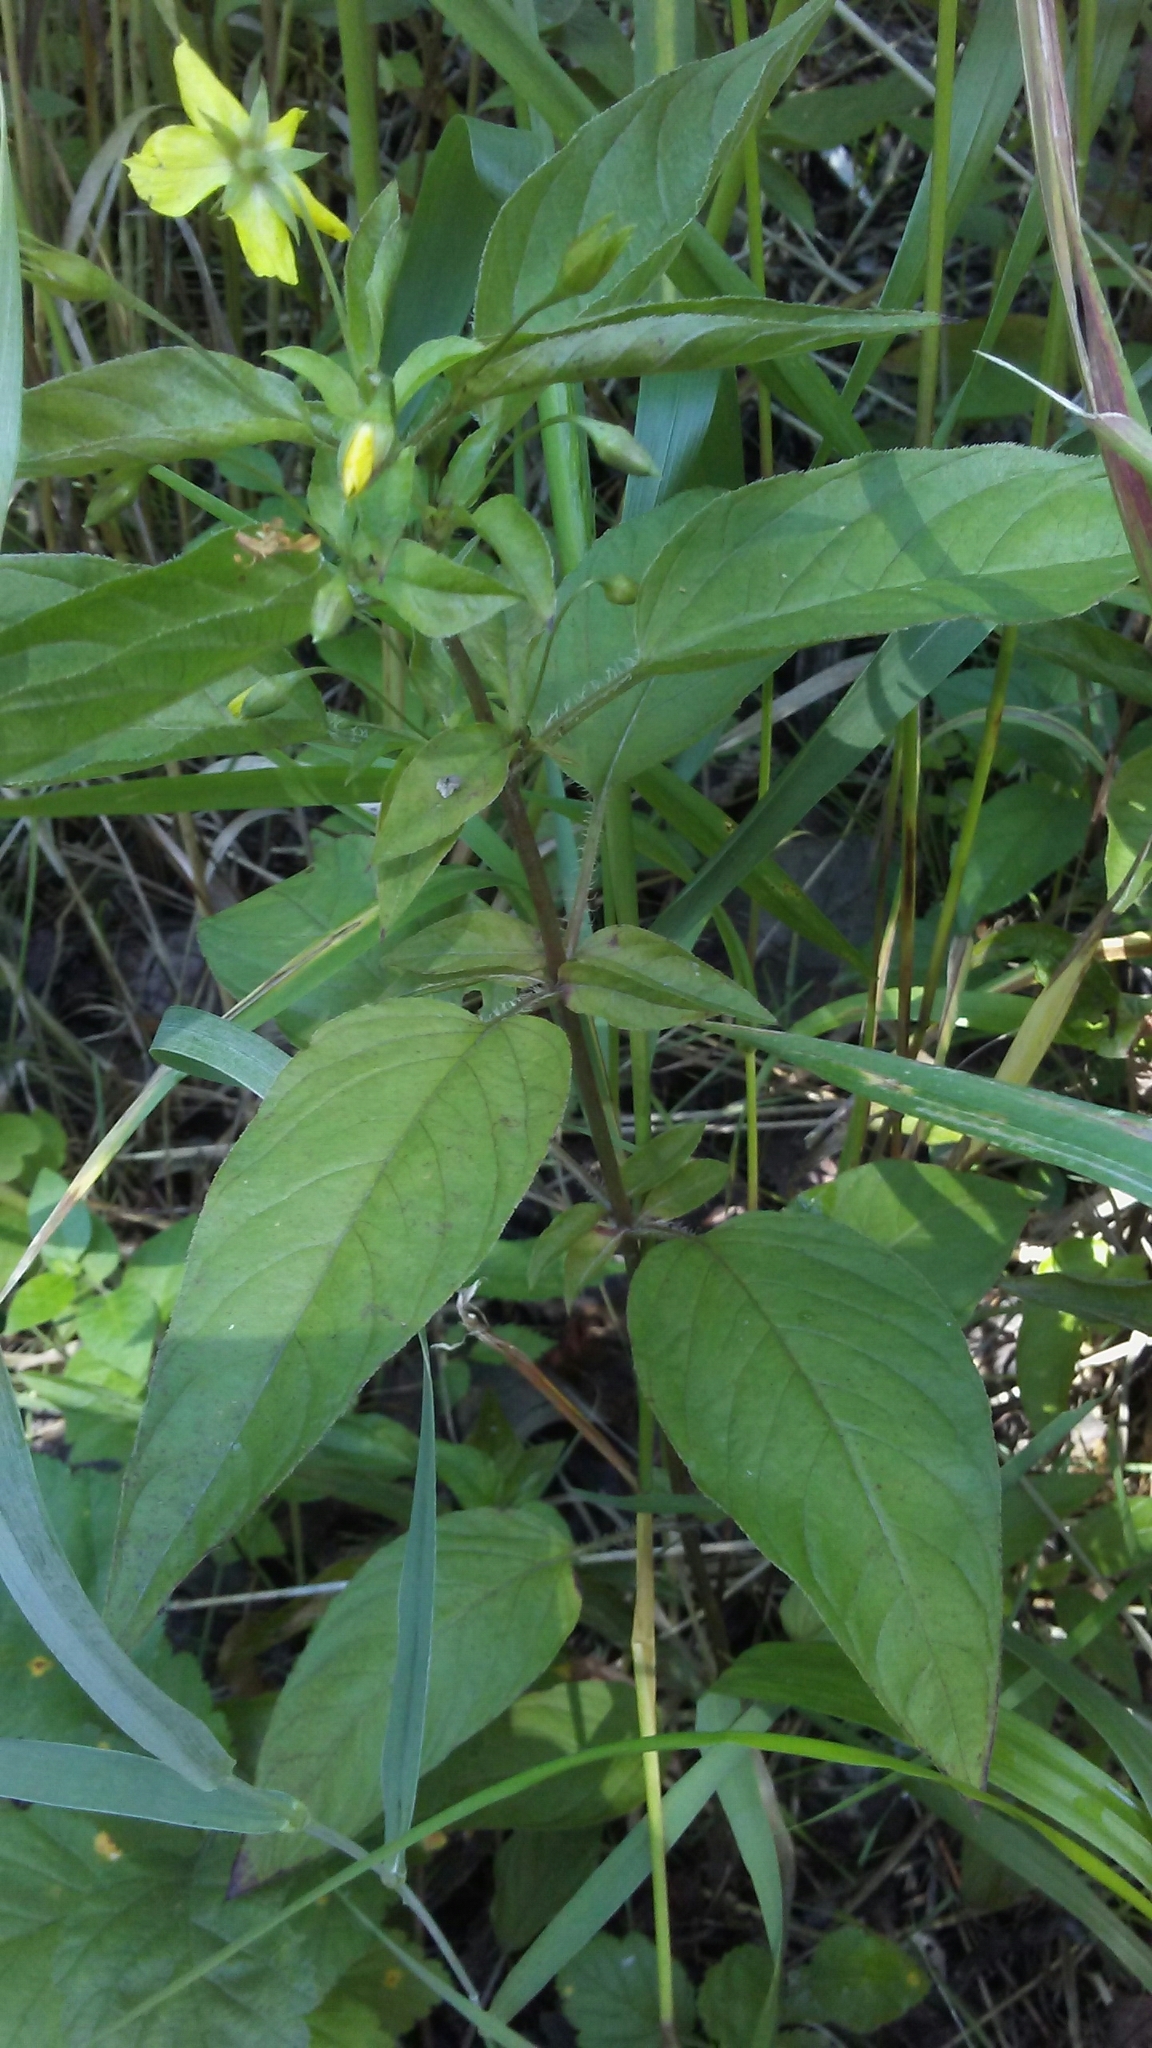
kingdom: Plantae
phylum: Tracheophyta
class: Magnoliopsida
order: Ericales
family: Primulaceae
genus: Lysimachia
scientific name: Lysimachia ciliata
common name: Fringed loosestrife
